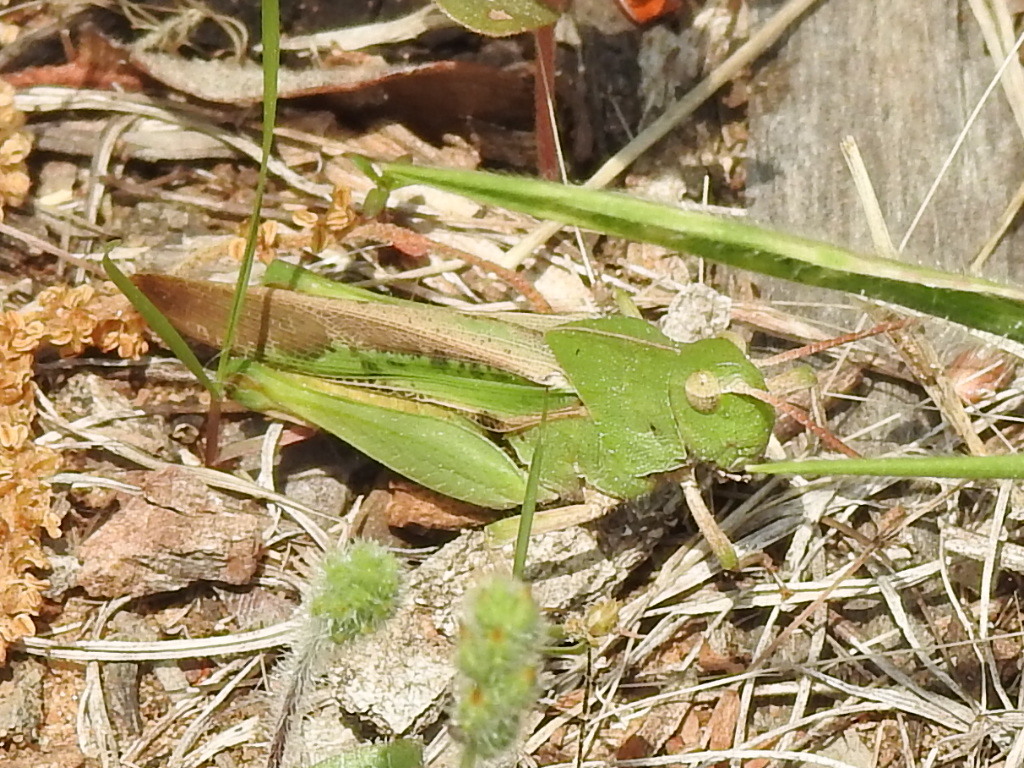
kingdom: Animalia
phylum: Arthropoda
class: Insecta
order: Orthoptera
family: Acrididae
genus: Chortophaga
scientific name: Chortophaga viridifasciata
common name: Green-striped grasshopper
